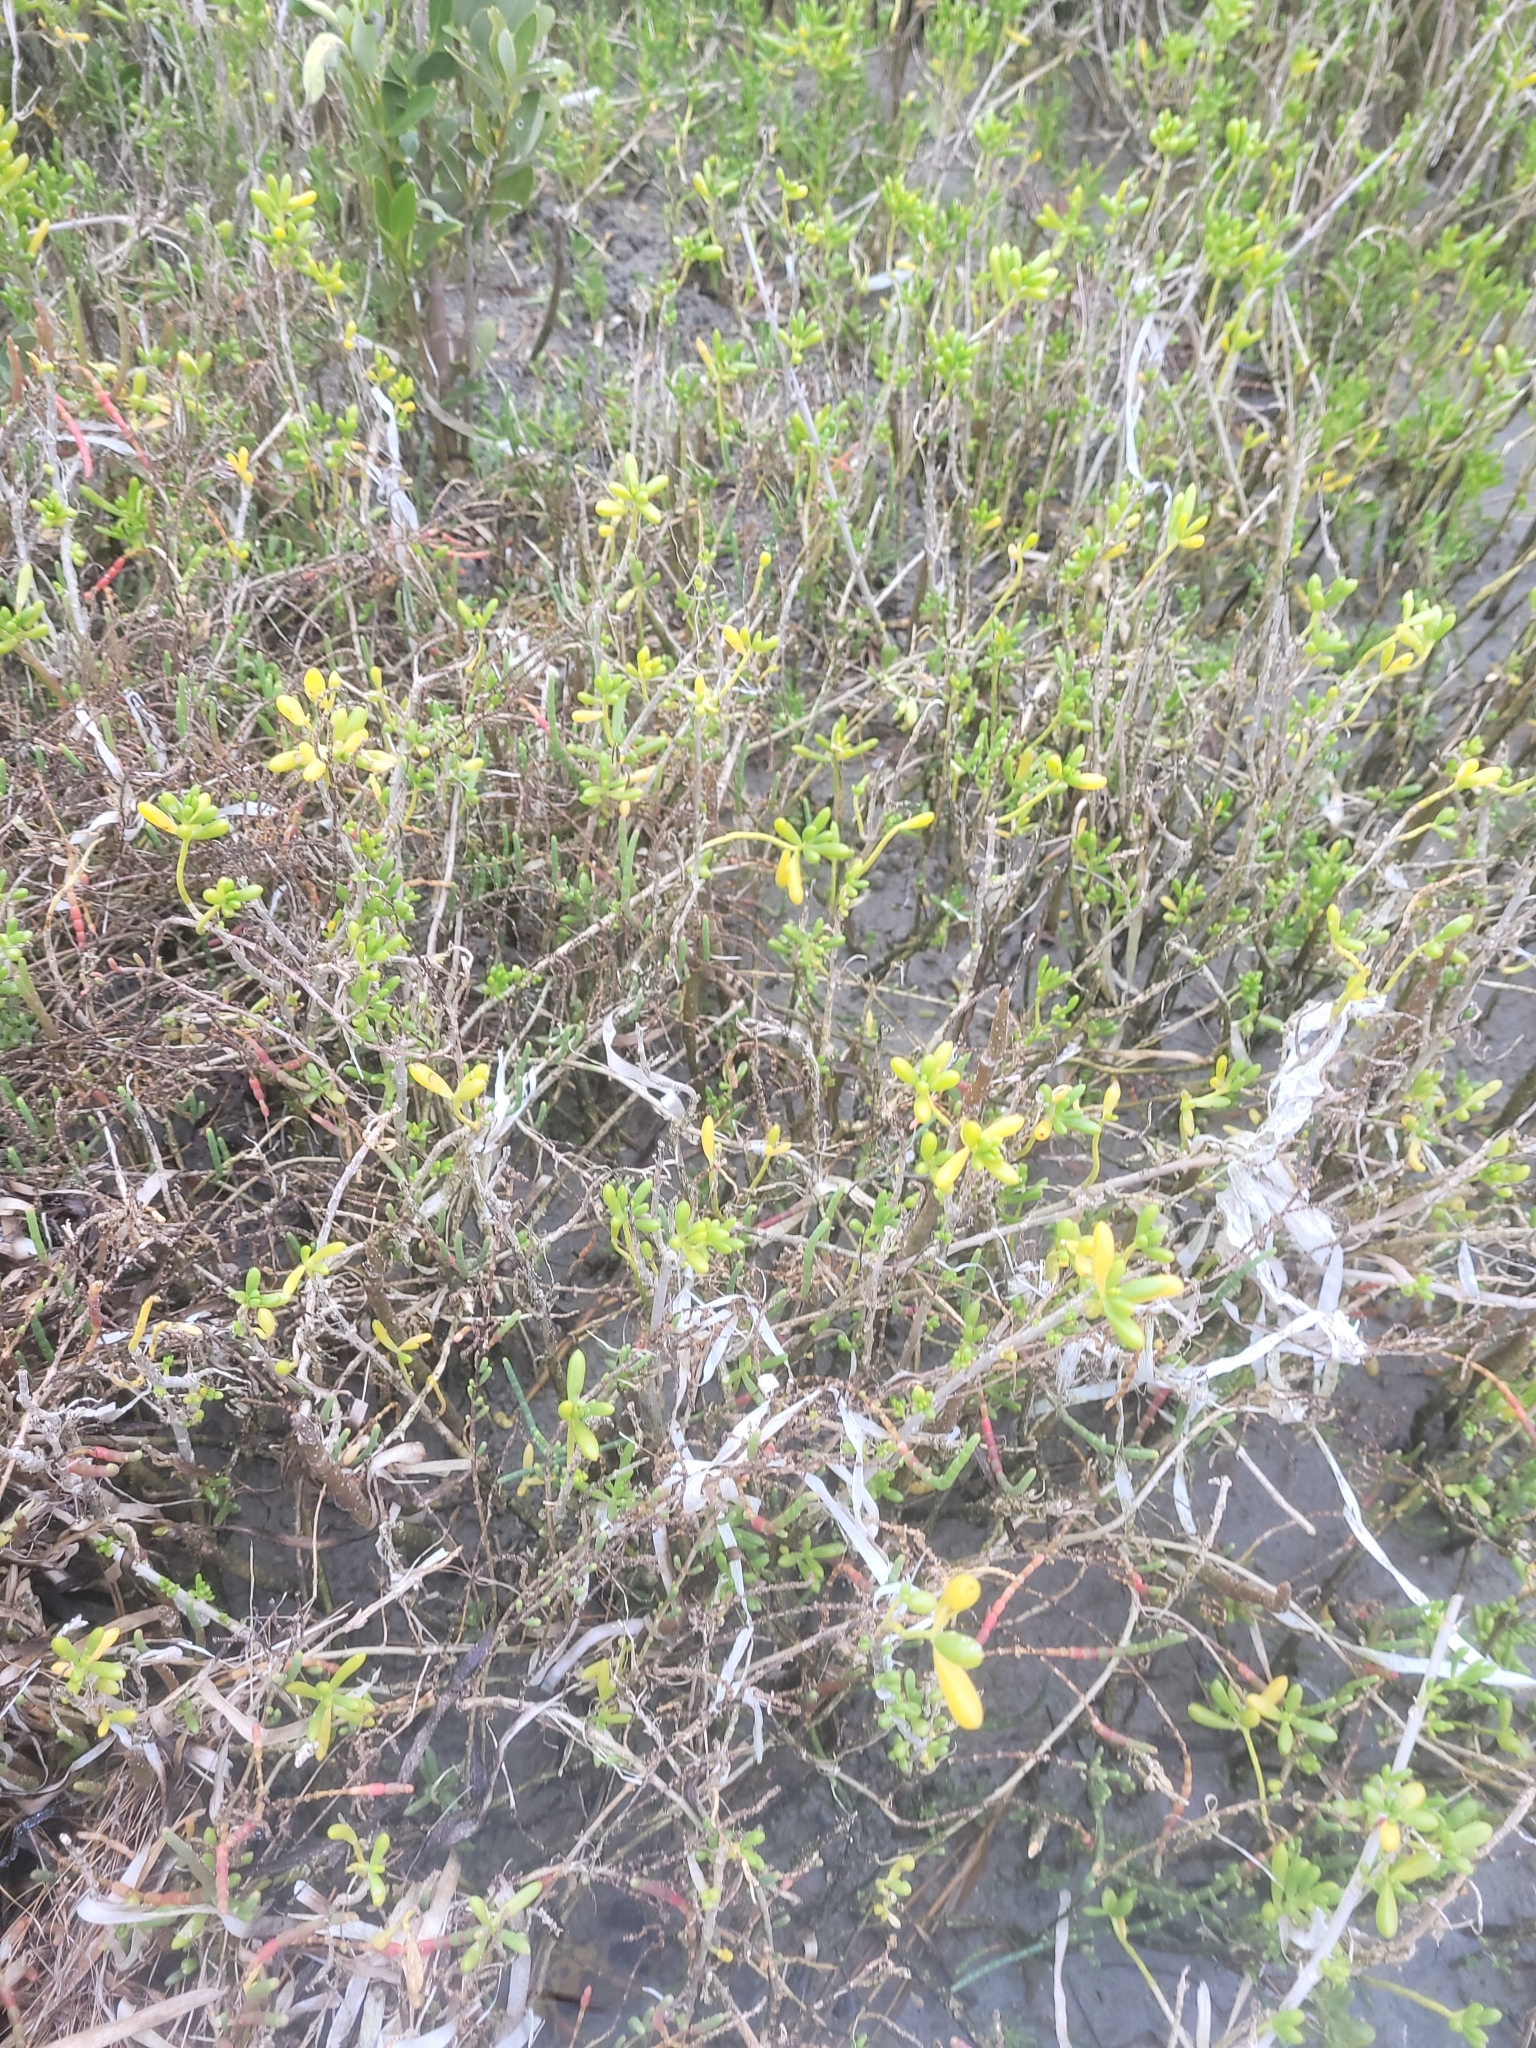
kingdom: Plantae
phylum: Tracheophyta
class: Magnoliopsida
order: Brassicales
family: Bataceae
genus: Batis
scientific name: Batis maritima
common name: Turtleweed
